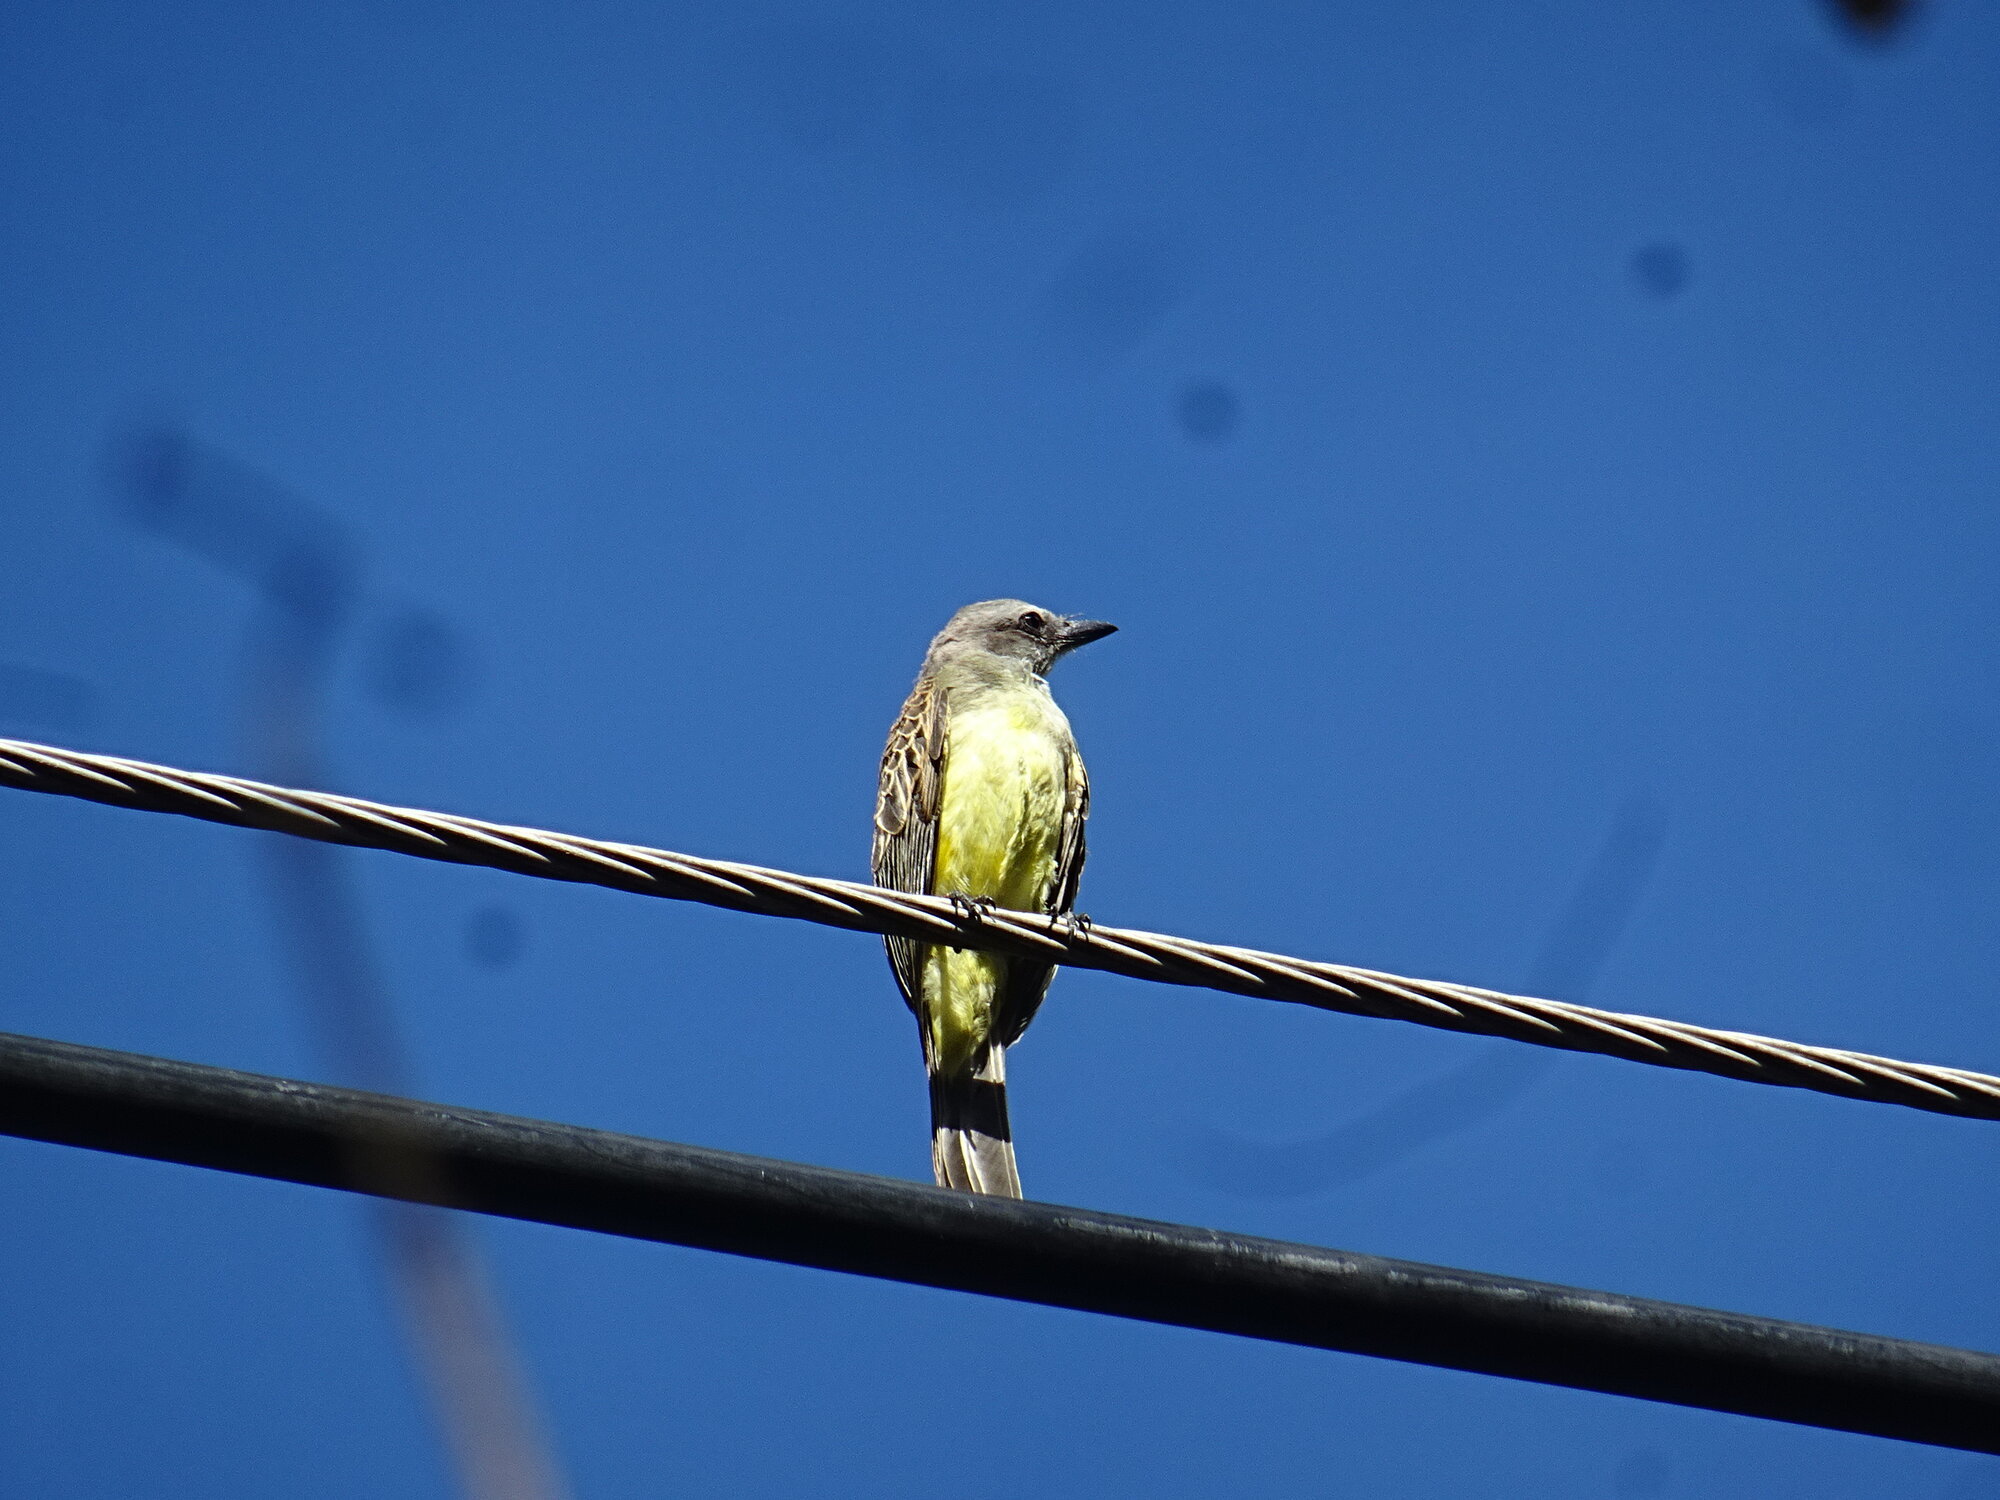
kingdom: Animalia
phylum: Chordata
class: Aves
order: Passeriformes
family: Tyrannidae
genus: Tyrannus
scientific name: Tyrannus melancholicus
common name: Tropical kingbird
